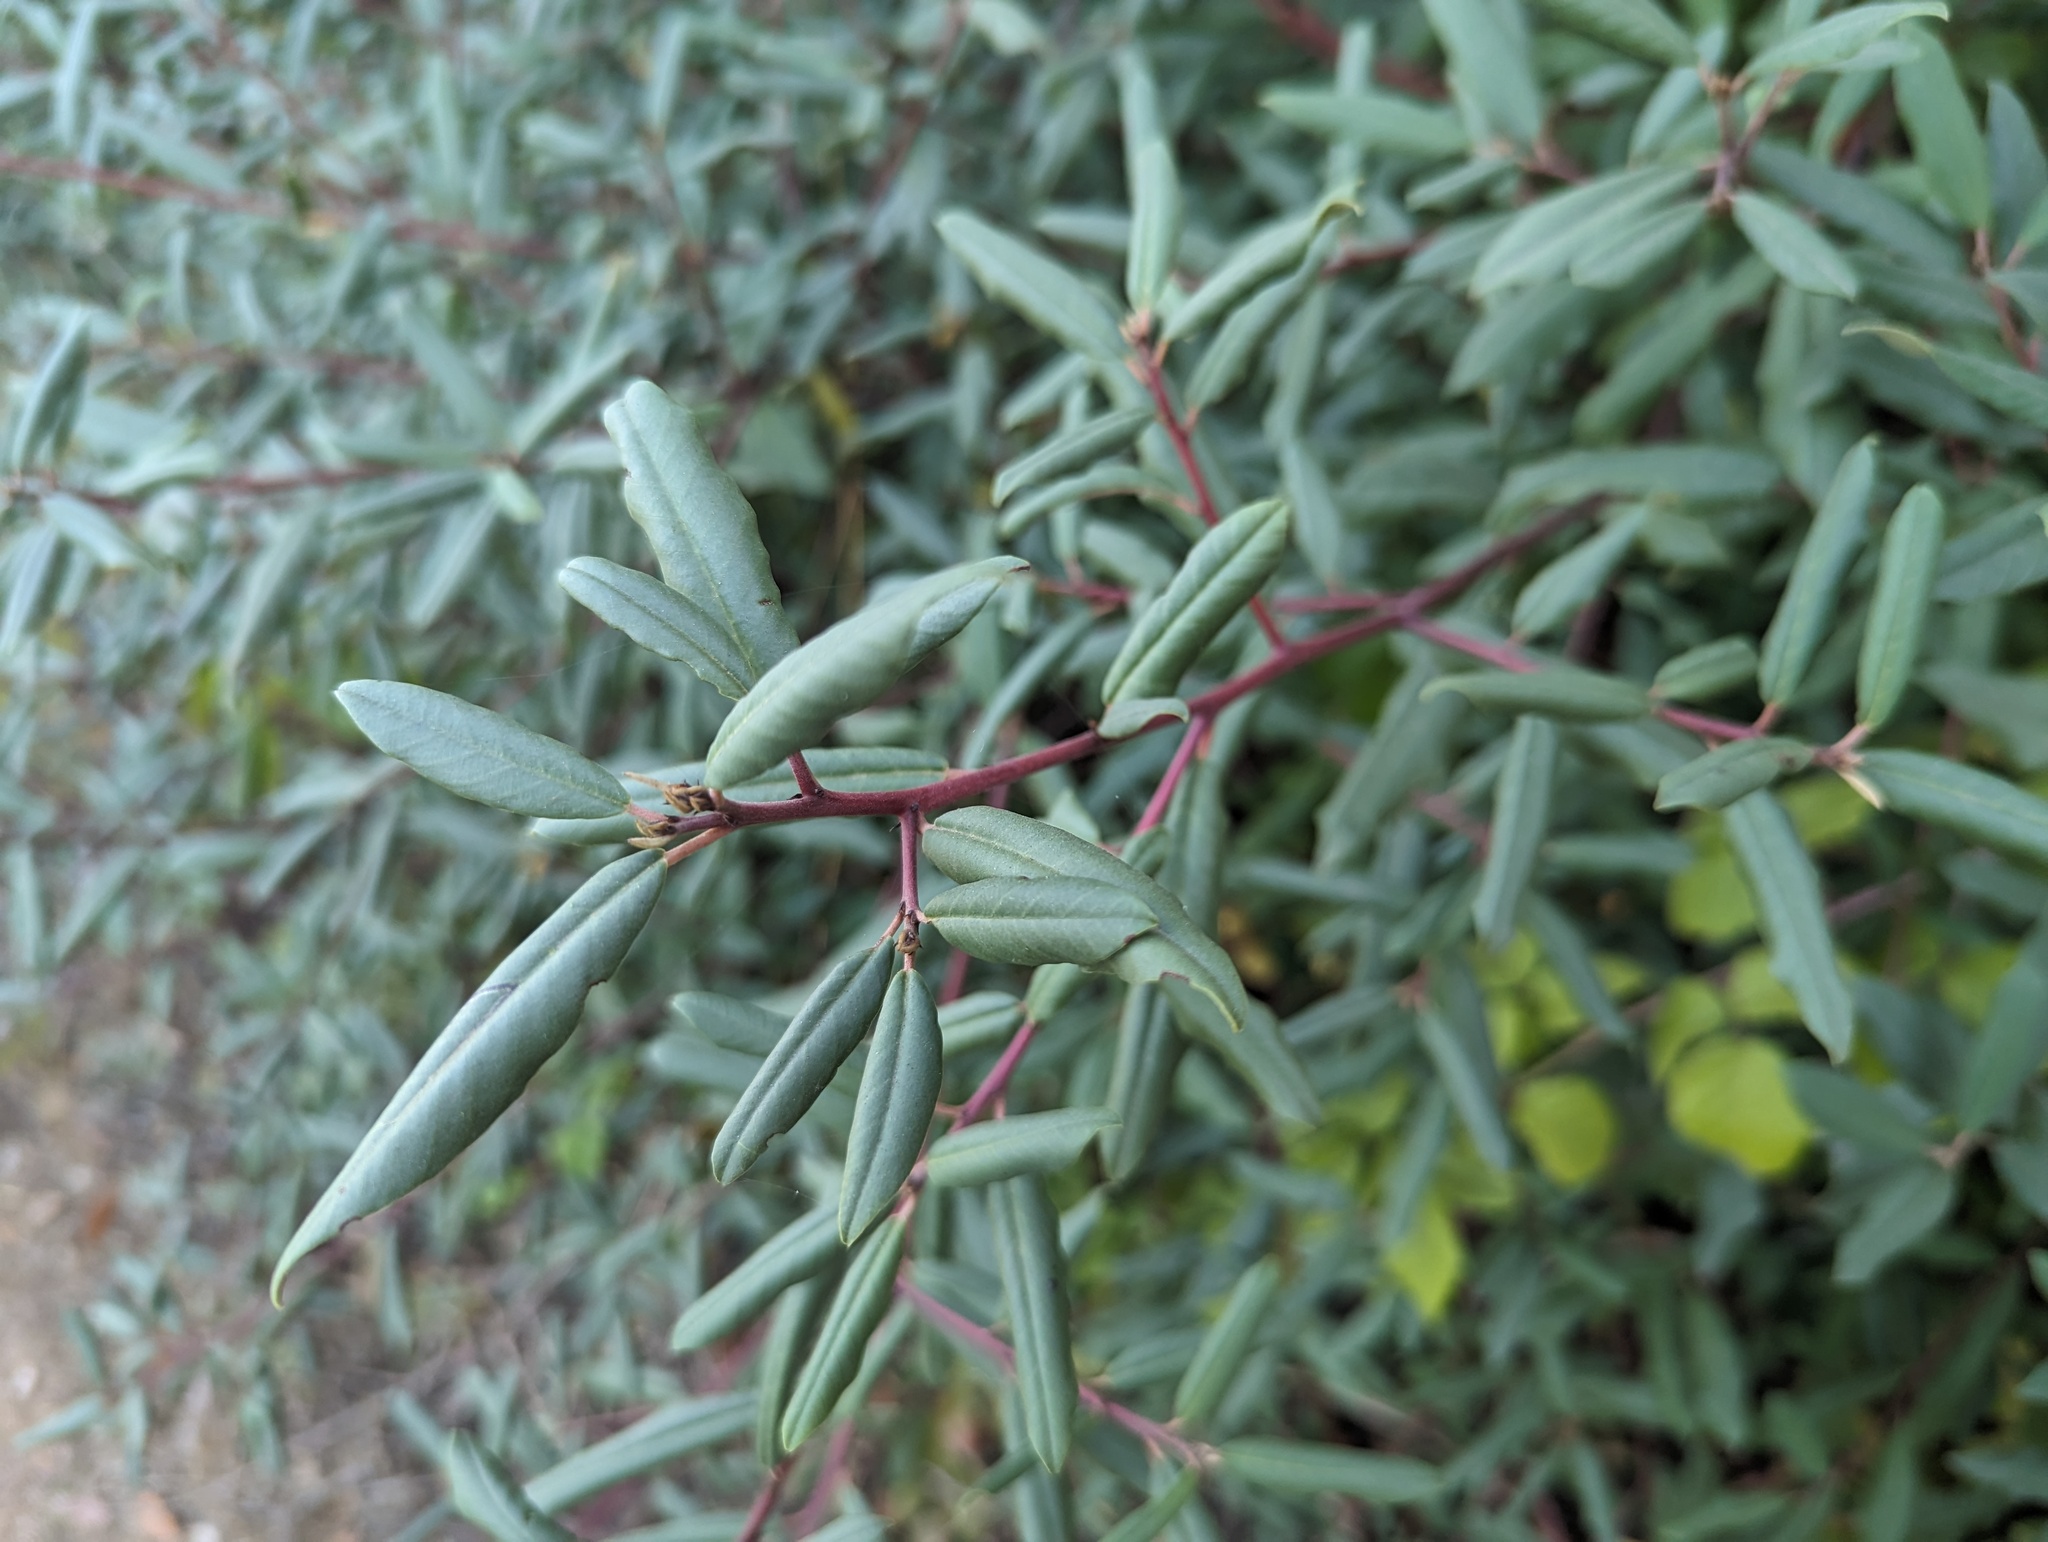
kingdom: Plantae
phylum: Tracheophyta
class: Magnoliopsida
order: Rosales
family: Rhamnaceae
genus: Frangula
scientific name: Frangula californica
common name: California buckthorn
